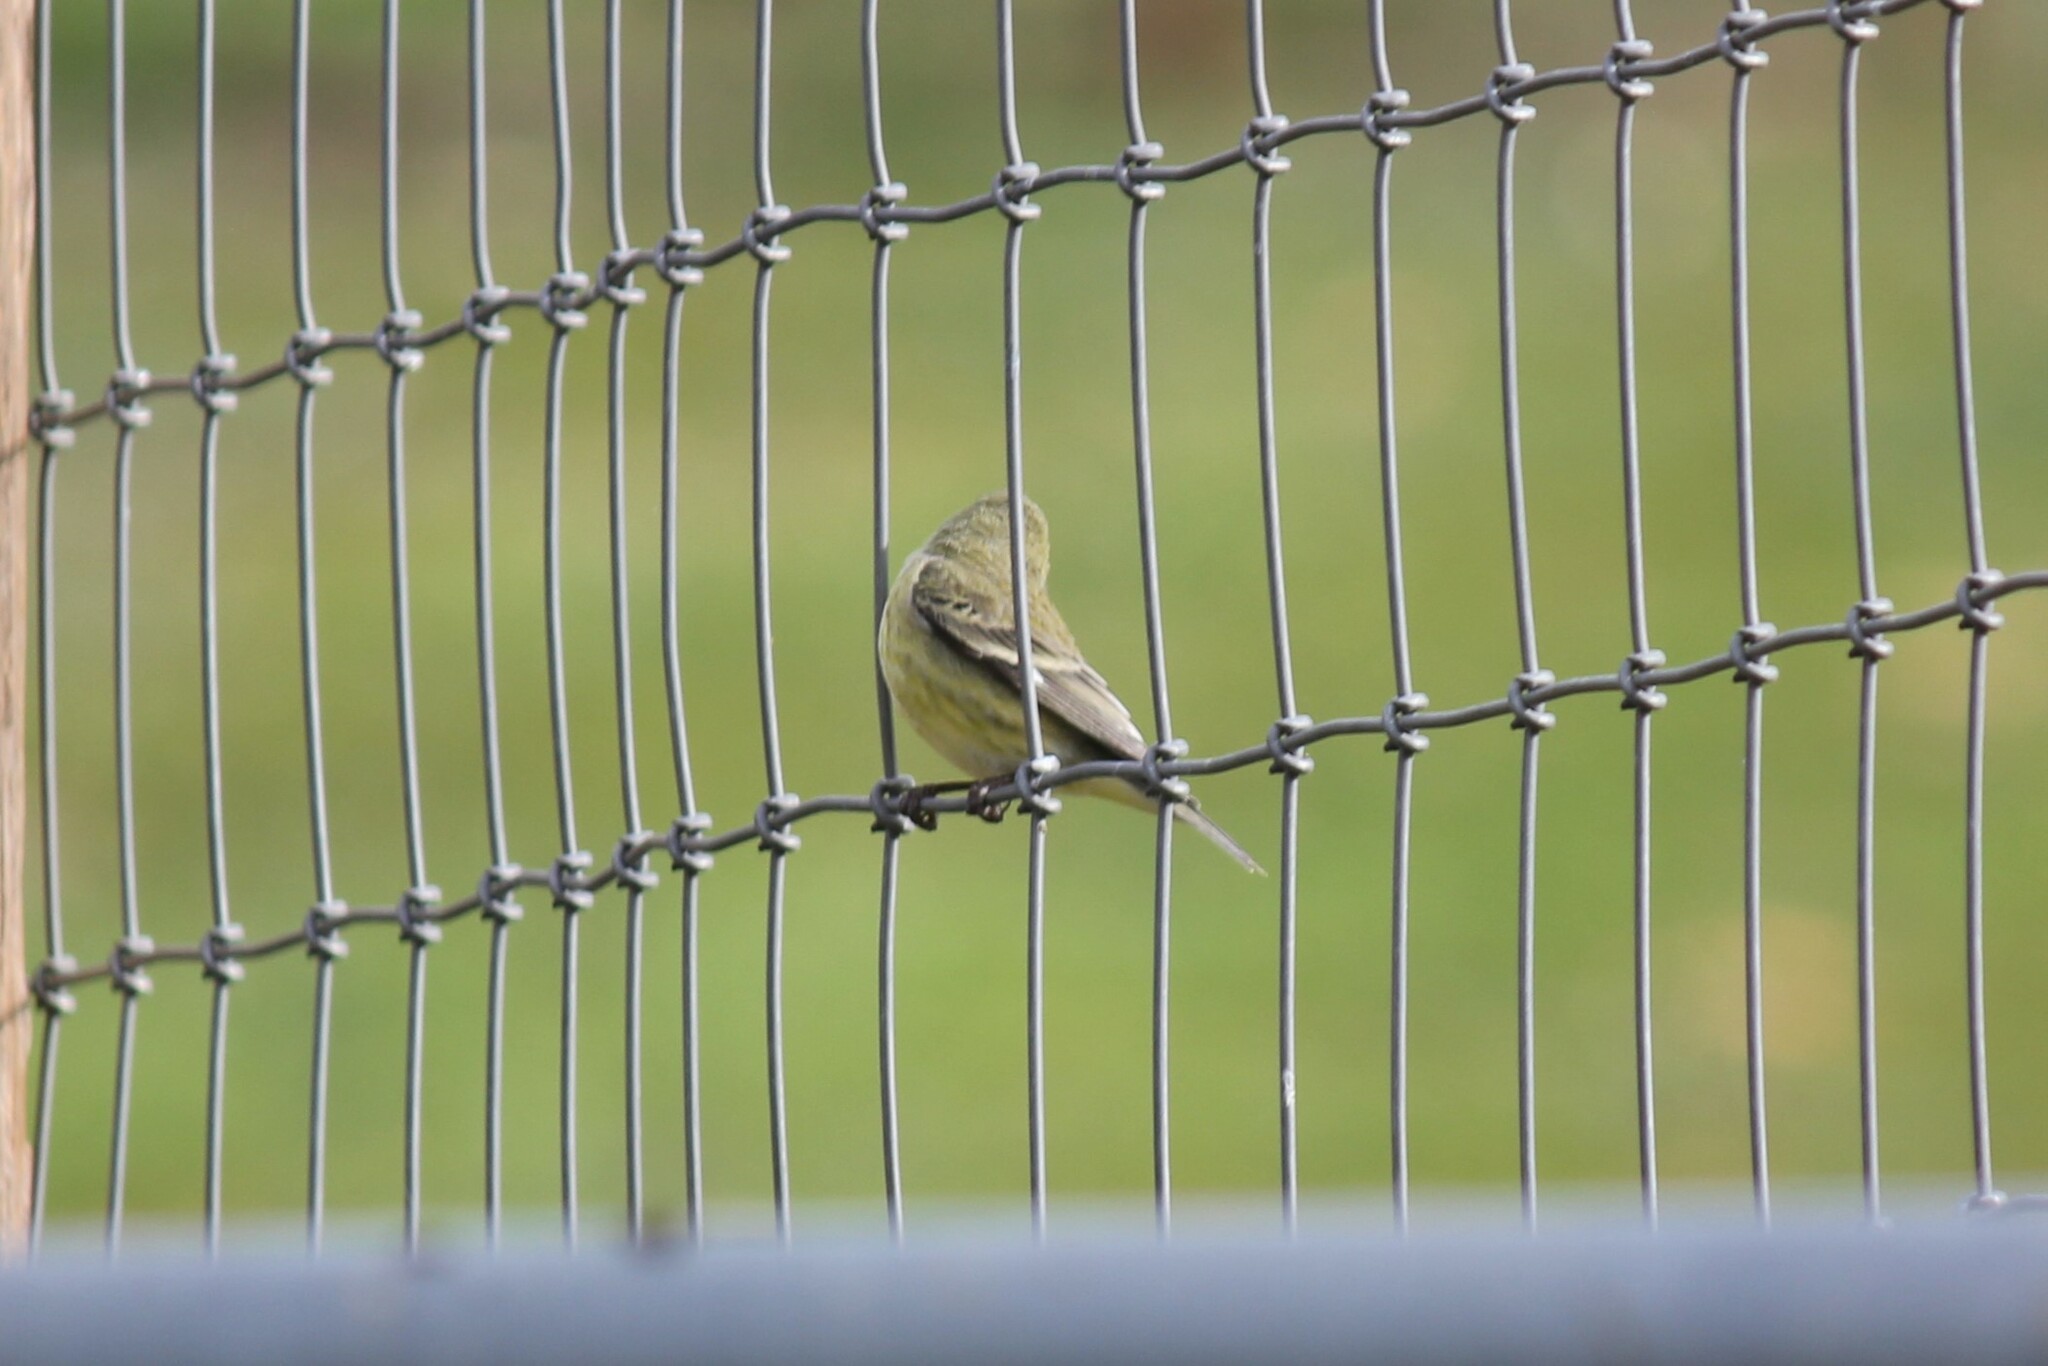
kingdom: Animalia
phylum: Chordata
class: Aves
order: Passeriformes
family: Fringillidae
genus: Spinus
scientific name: Spinus psaltria
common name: Lesser goldfinch
